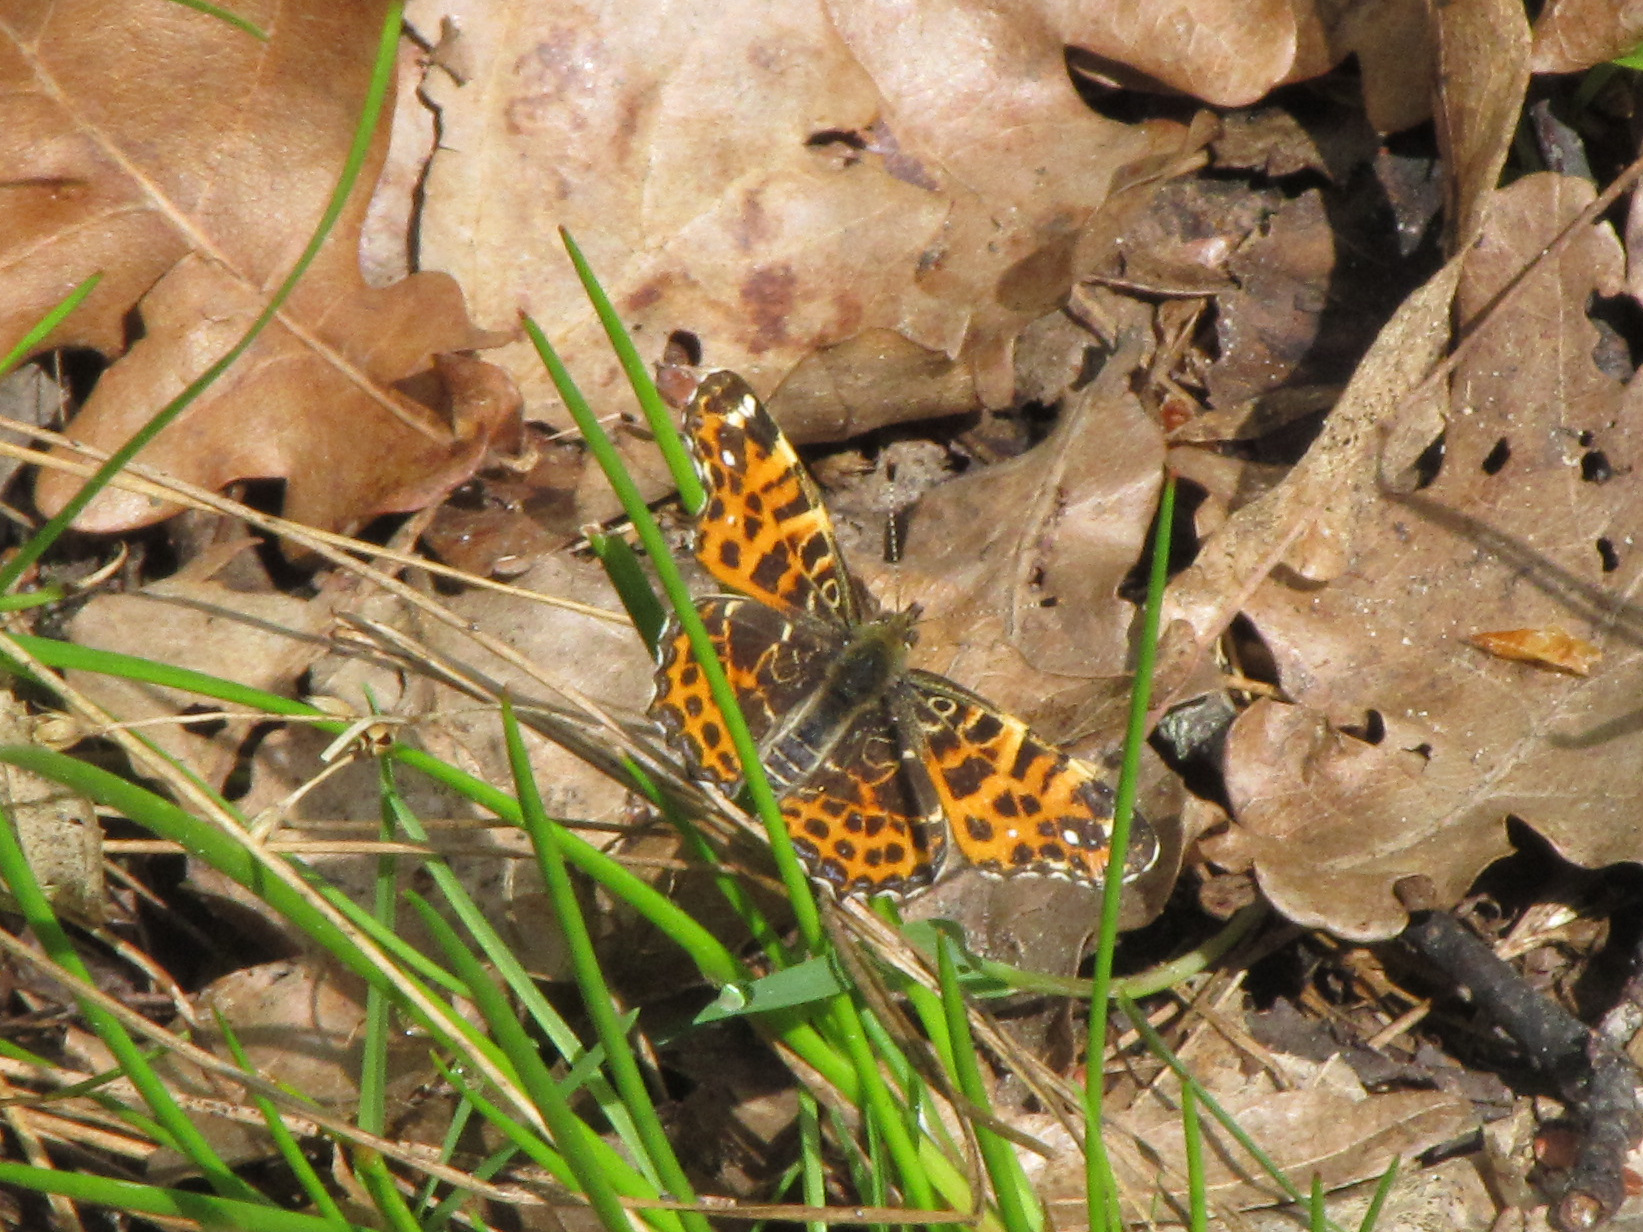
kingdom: Animalia
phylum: Arthropoda
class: Insecta
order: Lepidoptera
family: Nymphalidae
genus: Araschnia
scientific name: Araschnia levana
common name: Map butterfly
